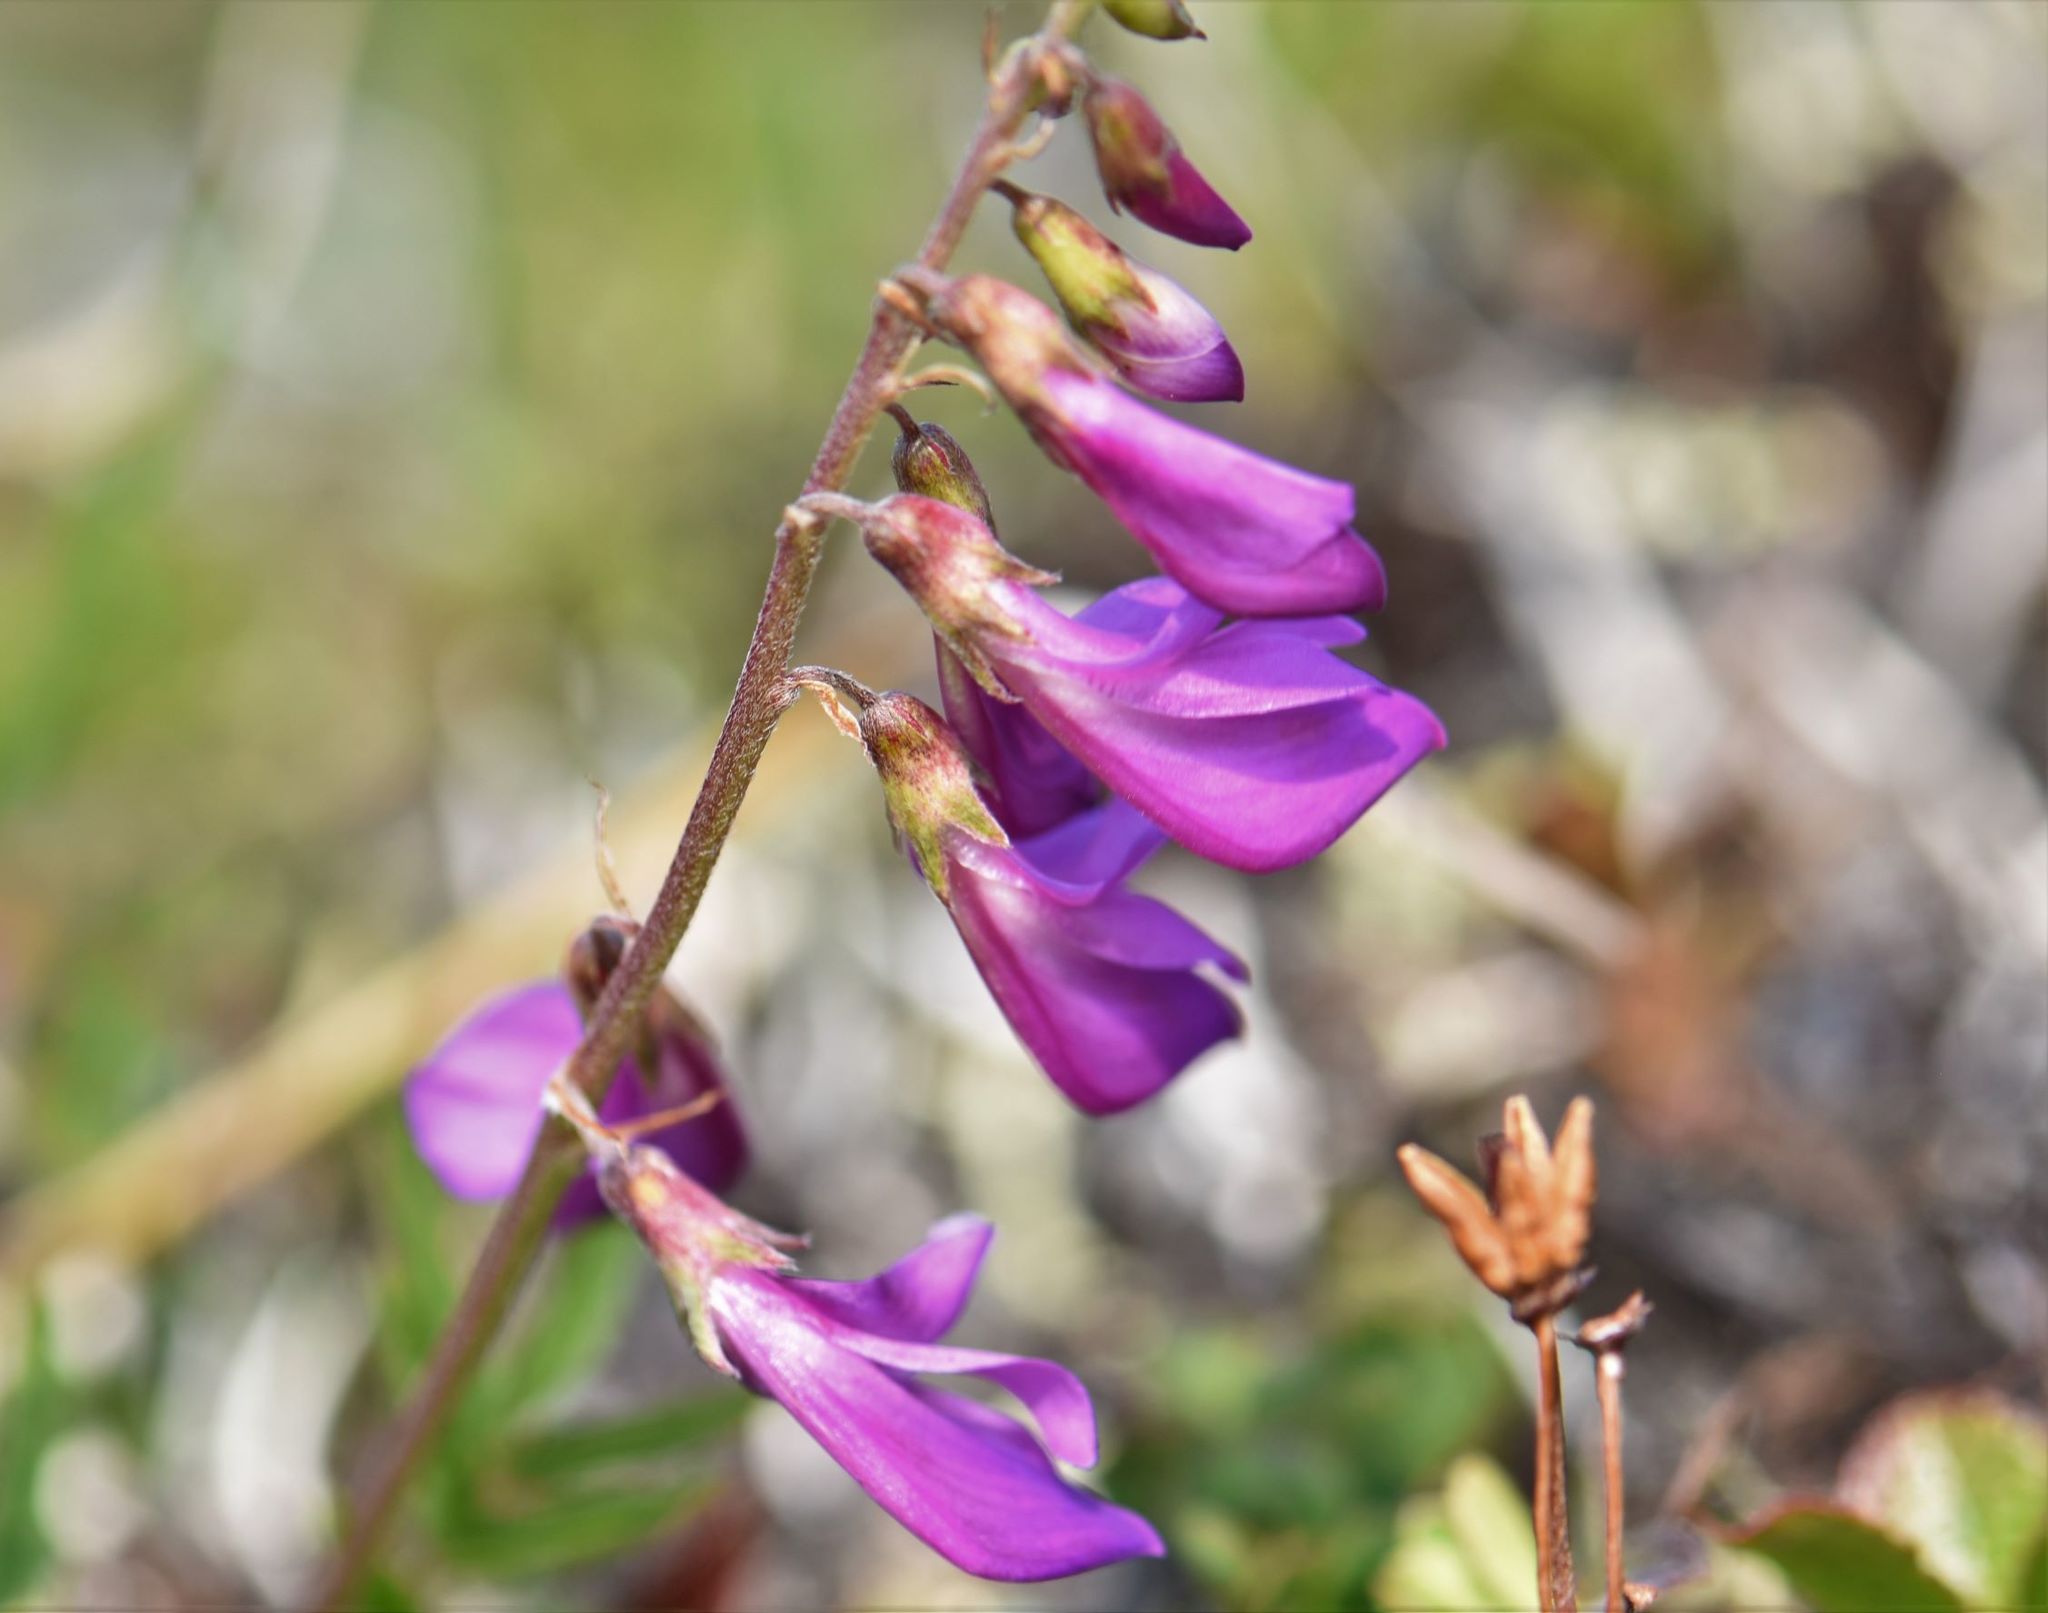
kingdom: Plantae
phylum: Tracheophyta
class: Magnoliopsida
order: Fabales
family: Fabaceae
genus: Hedysarum
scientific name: Hedysarum
